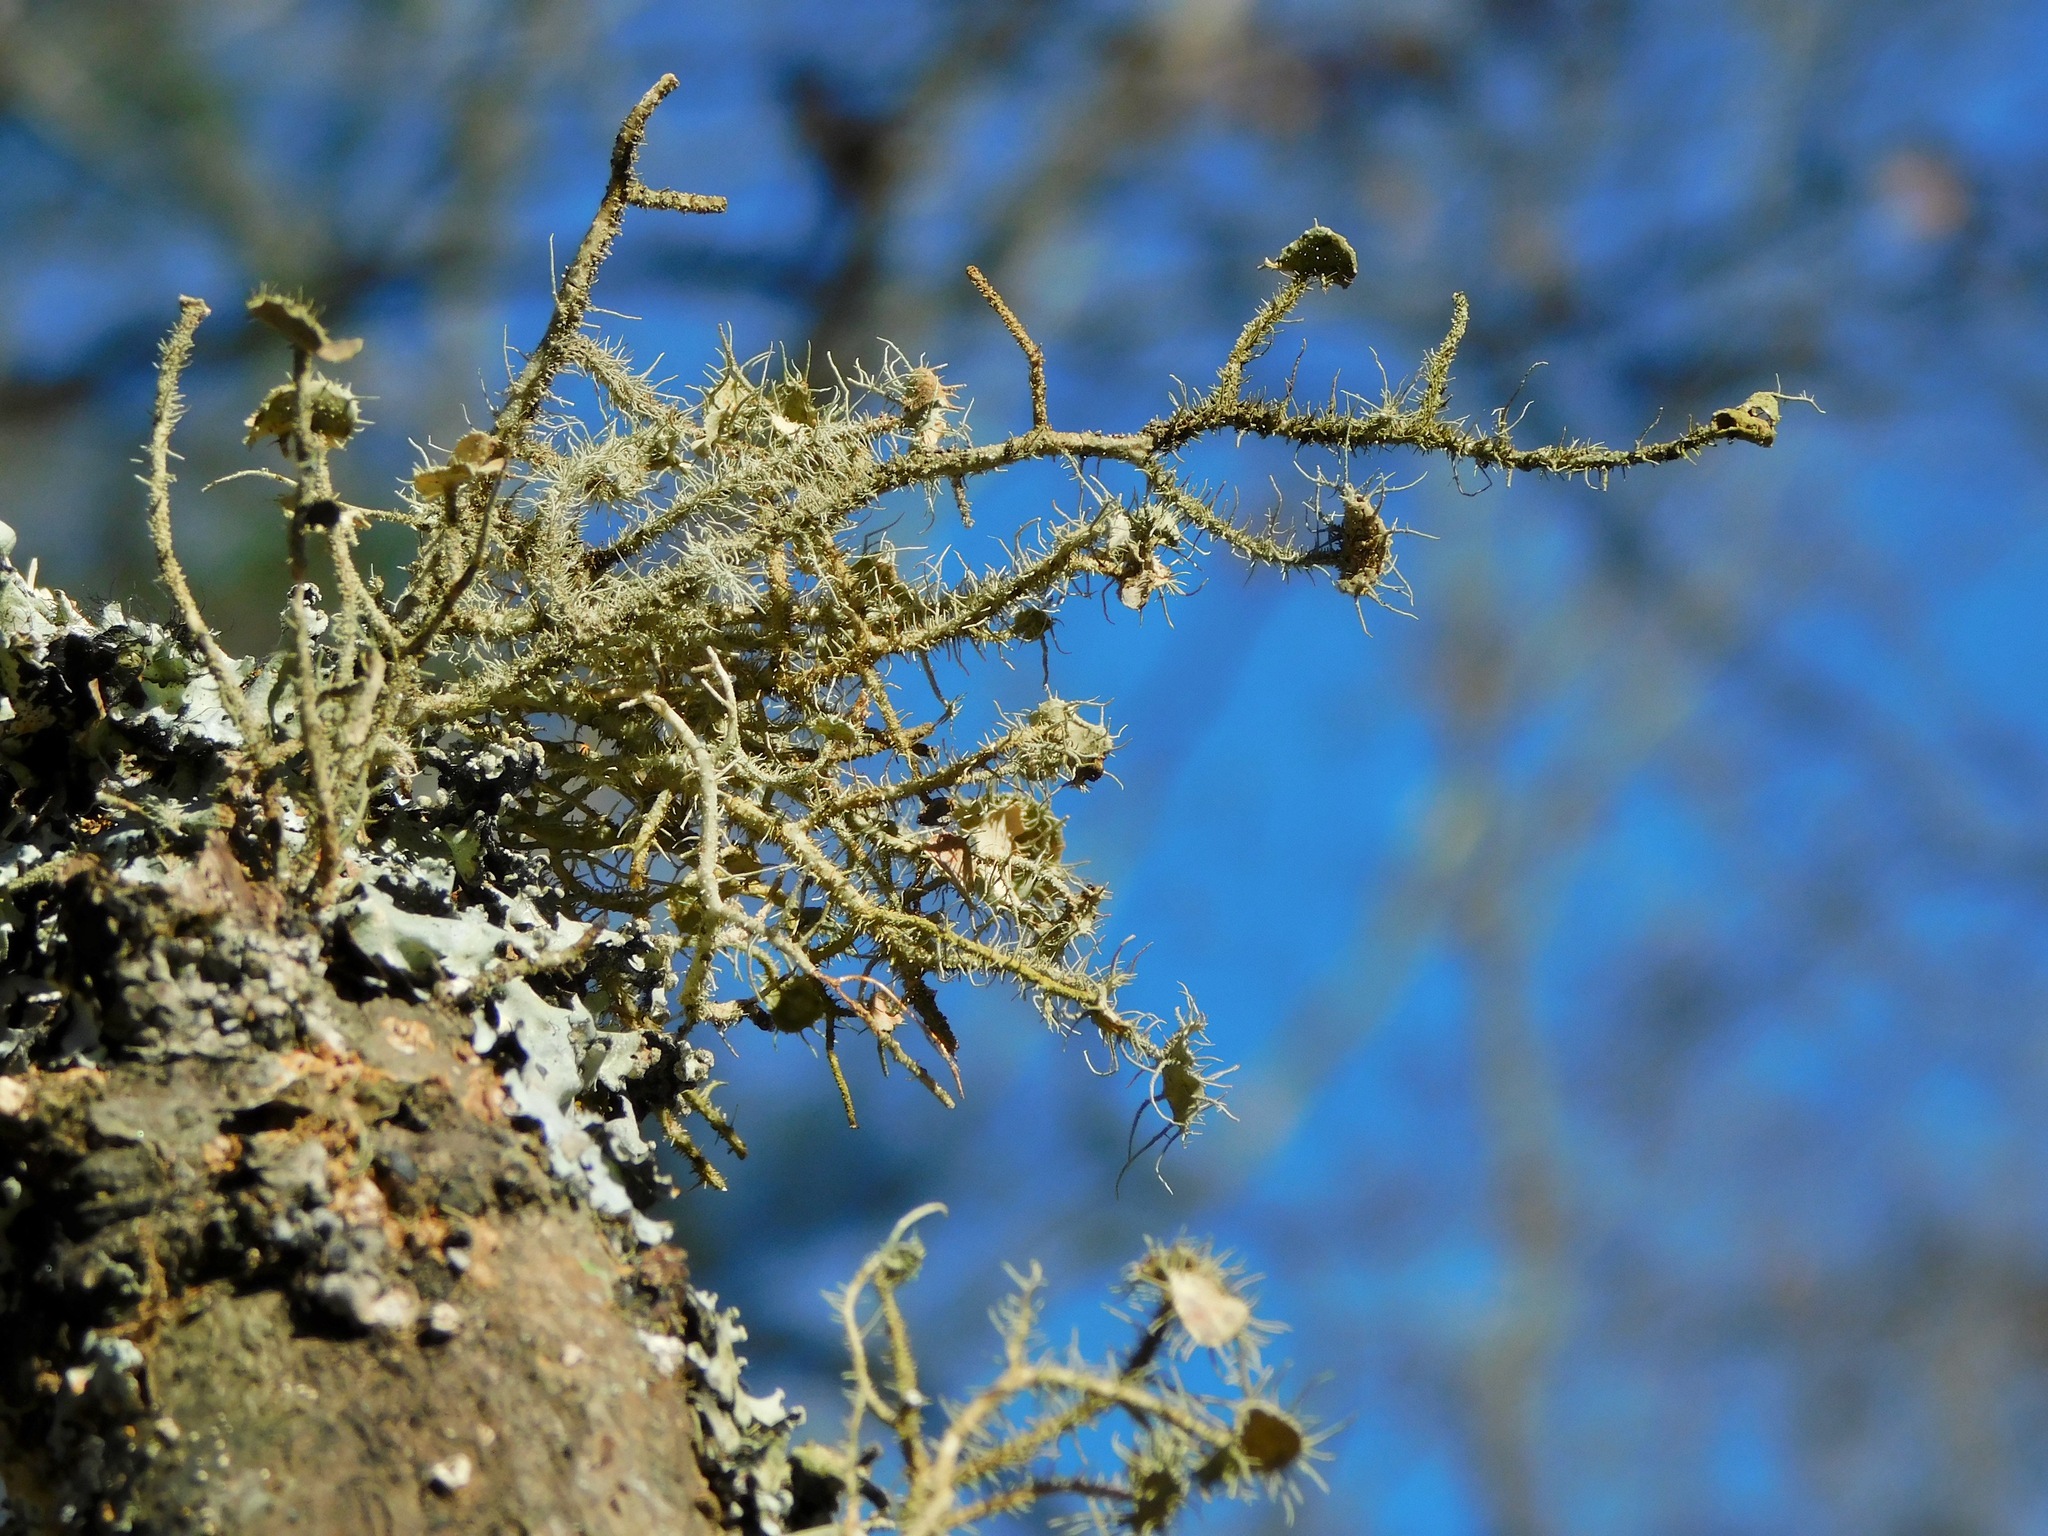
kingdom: Fungi
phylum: Ascomycota
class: Lecanoromycetes
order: Lecanorales
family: Parmeliaceae
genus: Usnea
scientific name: Usnea strigosa
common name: Bushy beard lichen
